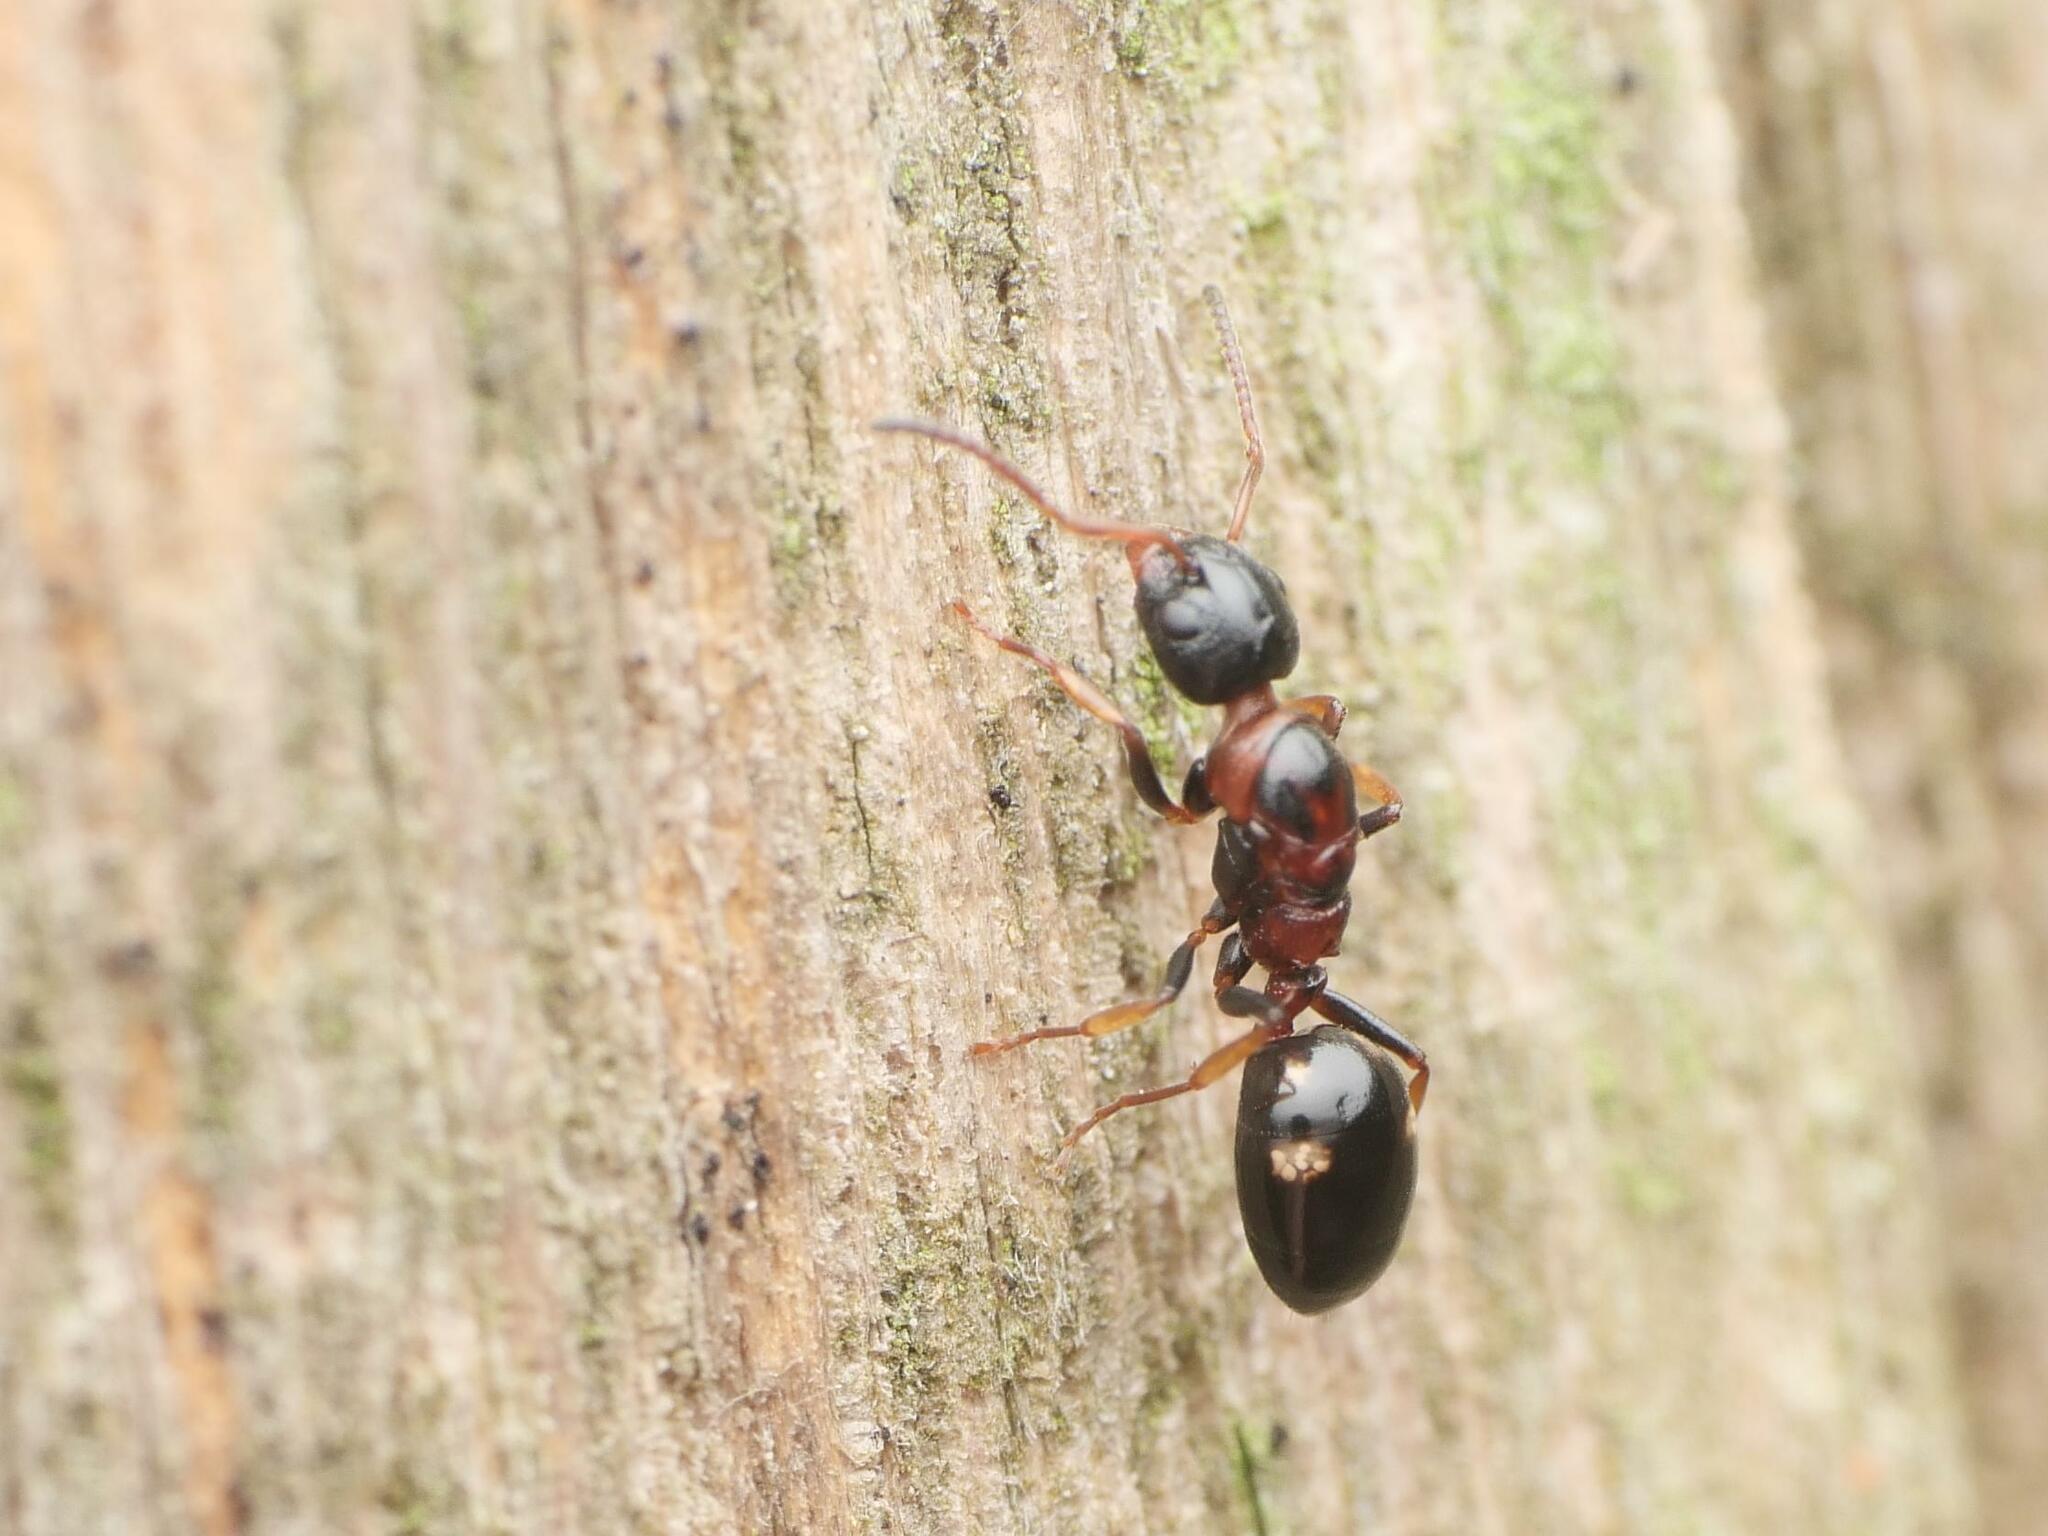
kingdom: Animalia
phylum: Arthropoda
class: Insecta
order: Hymenoptera
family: Formicidae
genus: Dolichoderus
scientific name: Dolichoderus quadripunctatus
